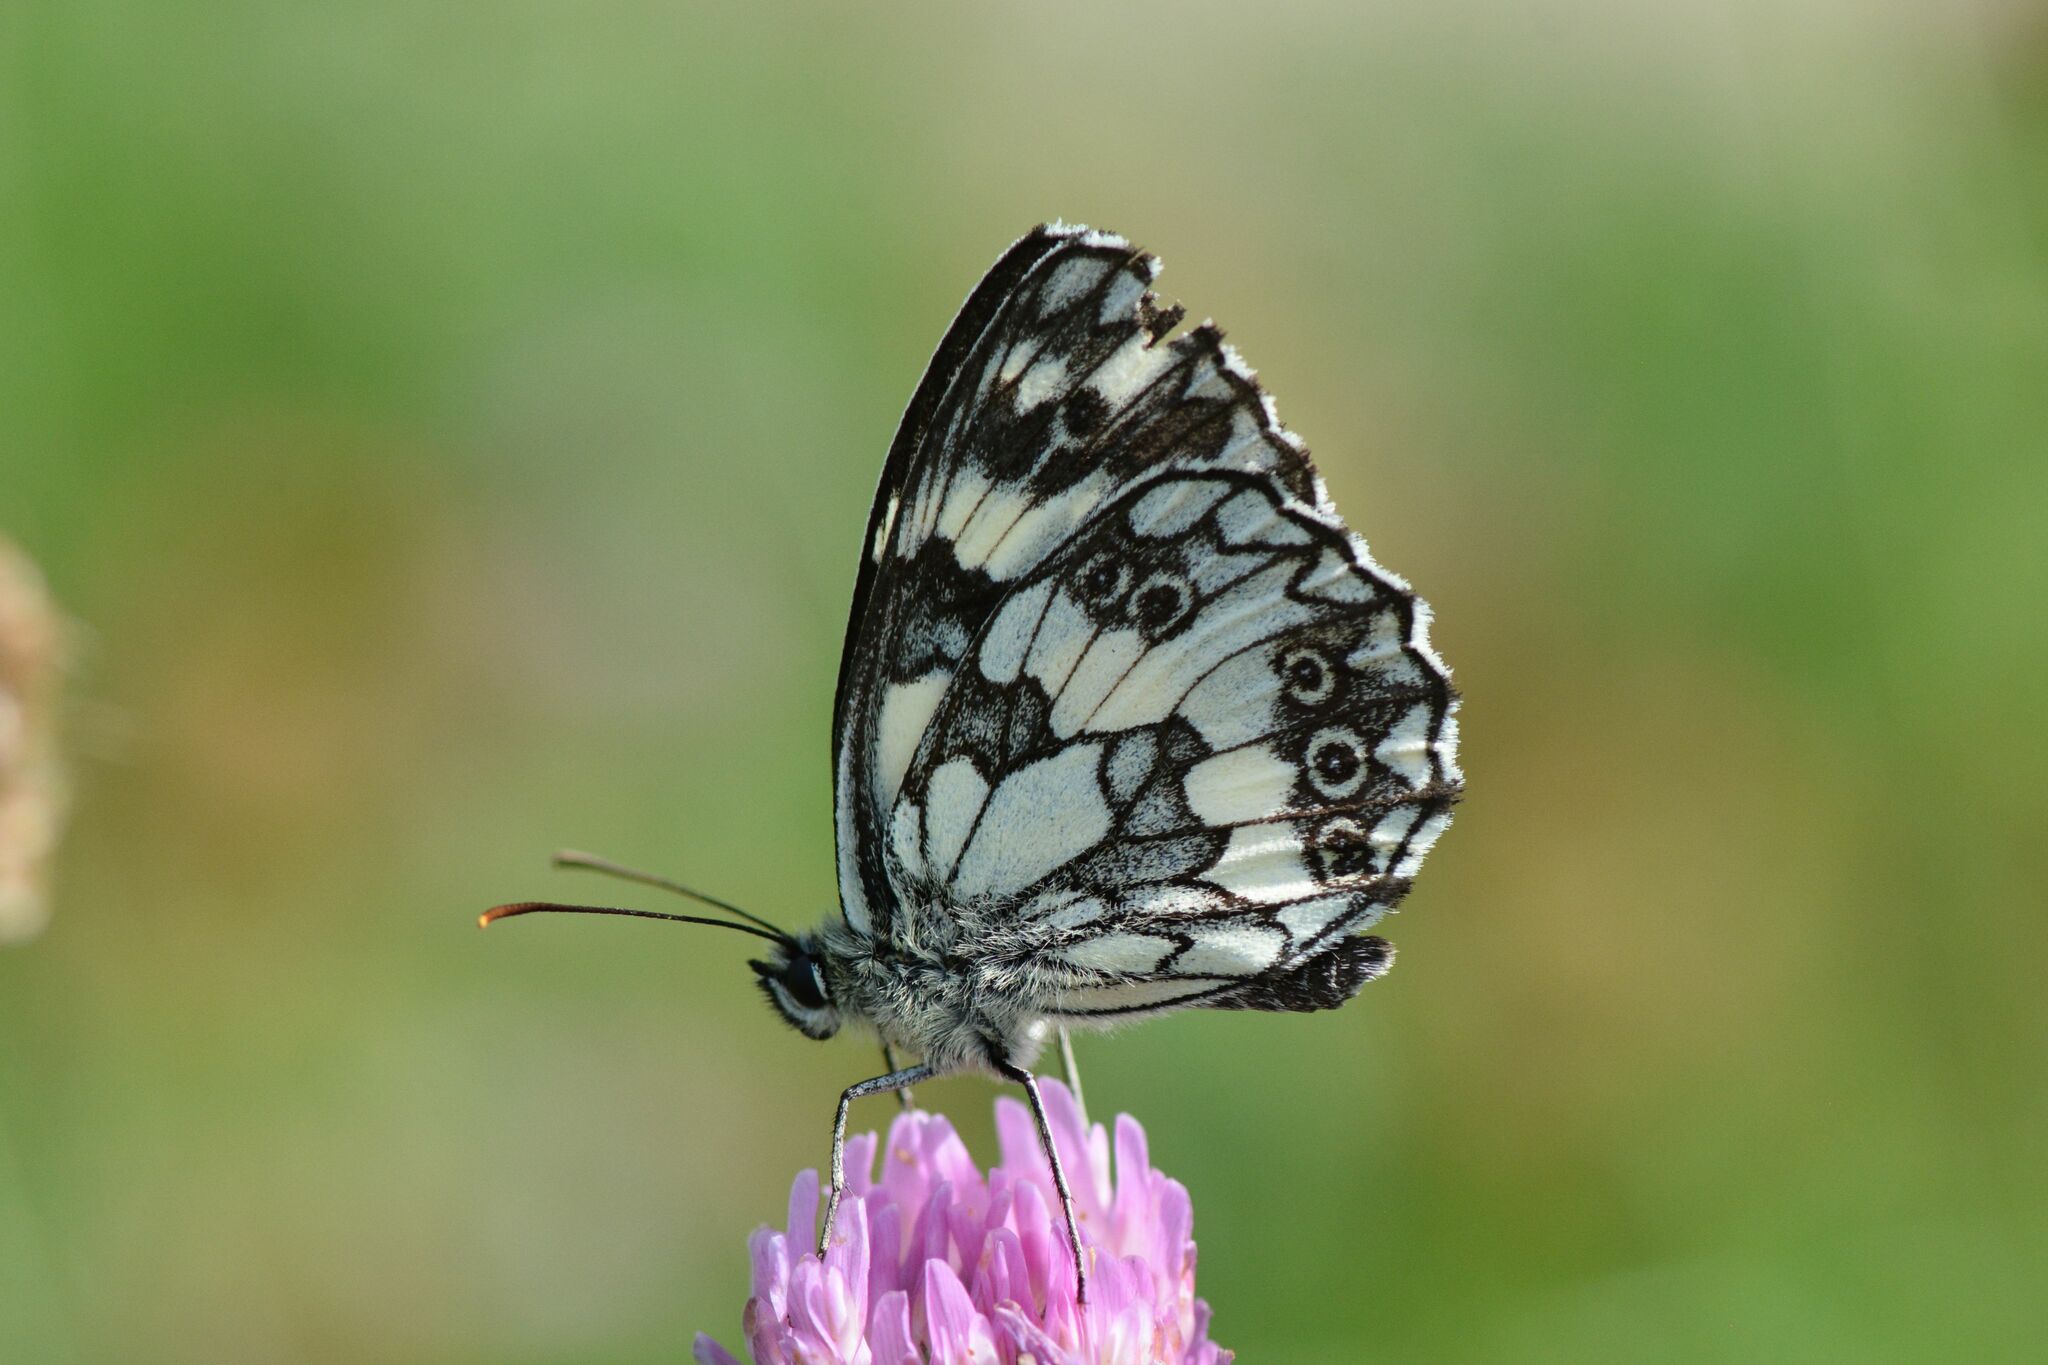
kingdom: Animalia
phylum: Arthropoda
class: Insecta
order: Lepidoptera
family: Nymphalidae
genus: Melanargia
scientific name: Melanargia galathea
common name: Marbled white
